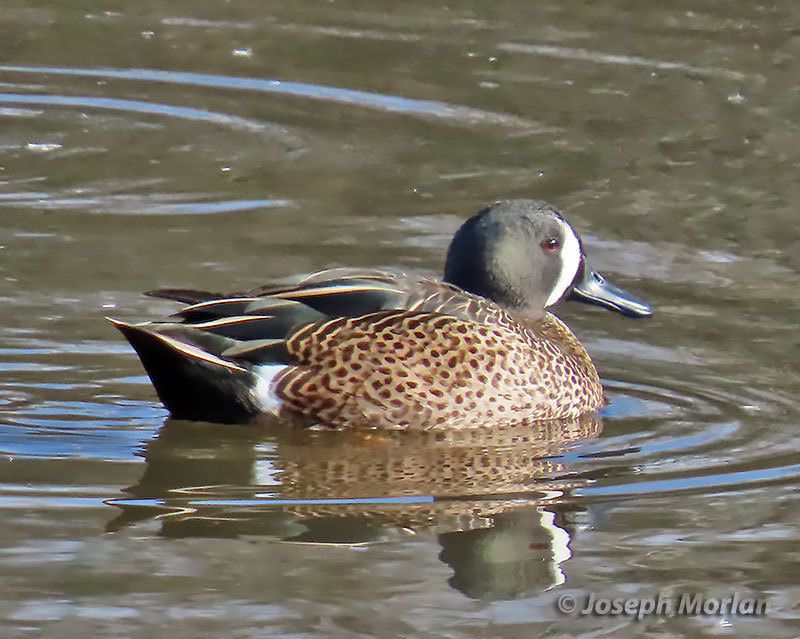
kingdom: Animalia
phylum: Chordata
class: Aves
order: Anseriformes
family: Anatidae
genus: Spatula
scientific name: Spatula discors
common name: Blue-winged teal
